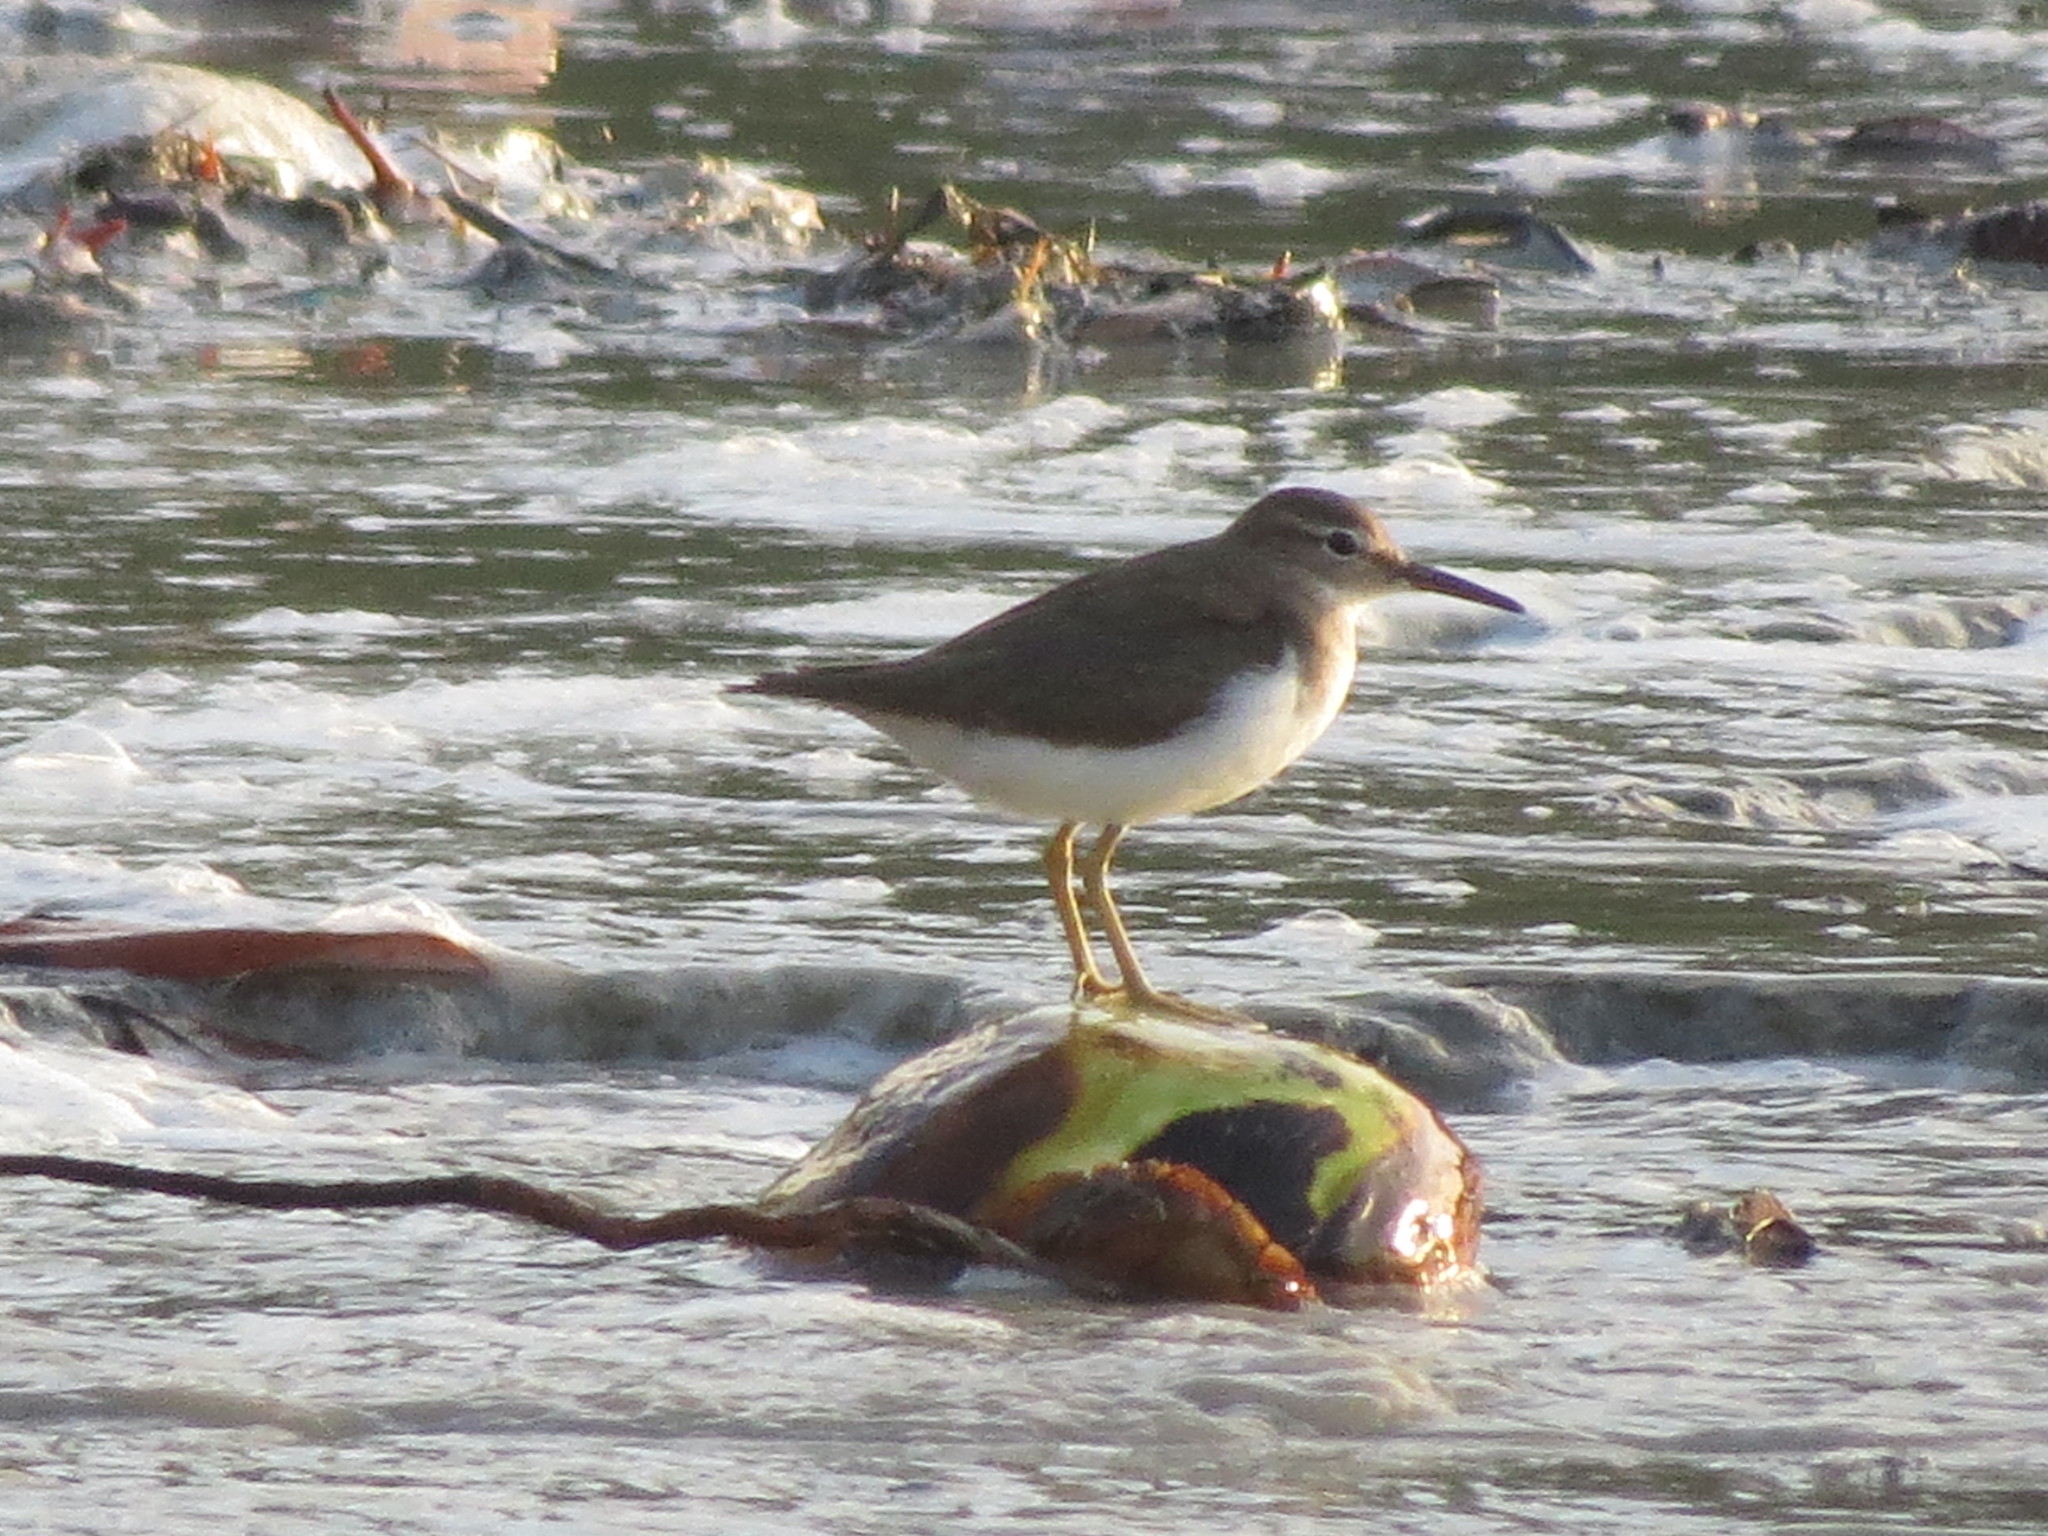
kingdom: Animalia
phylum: Chordata
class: Aves
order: Charadriiformes
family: Scolopacidae
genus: Actitis
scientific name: Actitis macularius
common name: Spotted sandpiper
